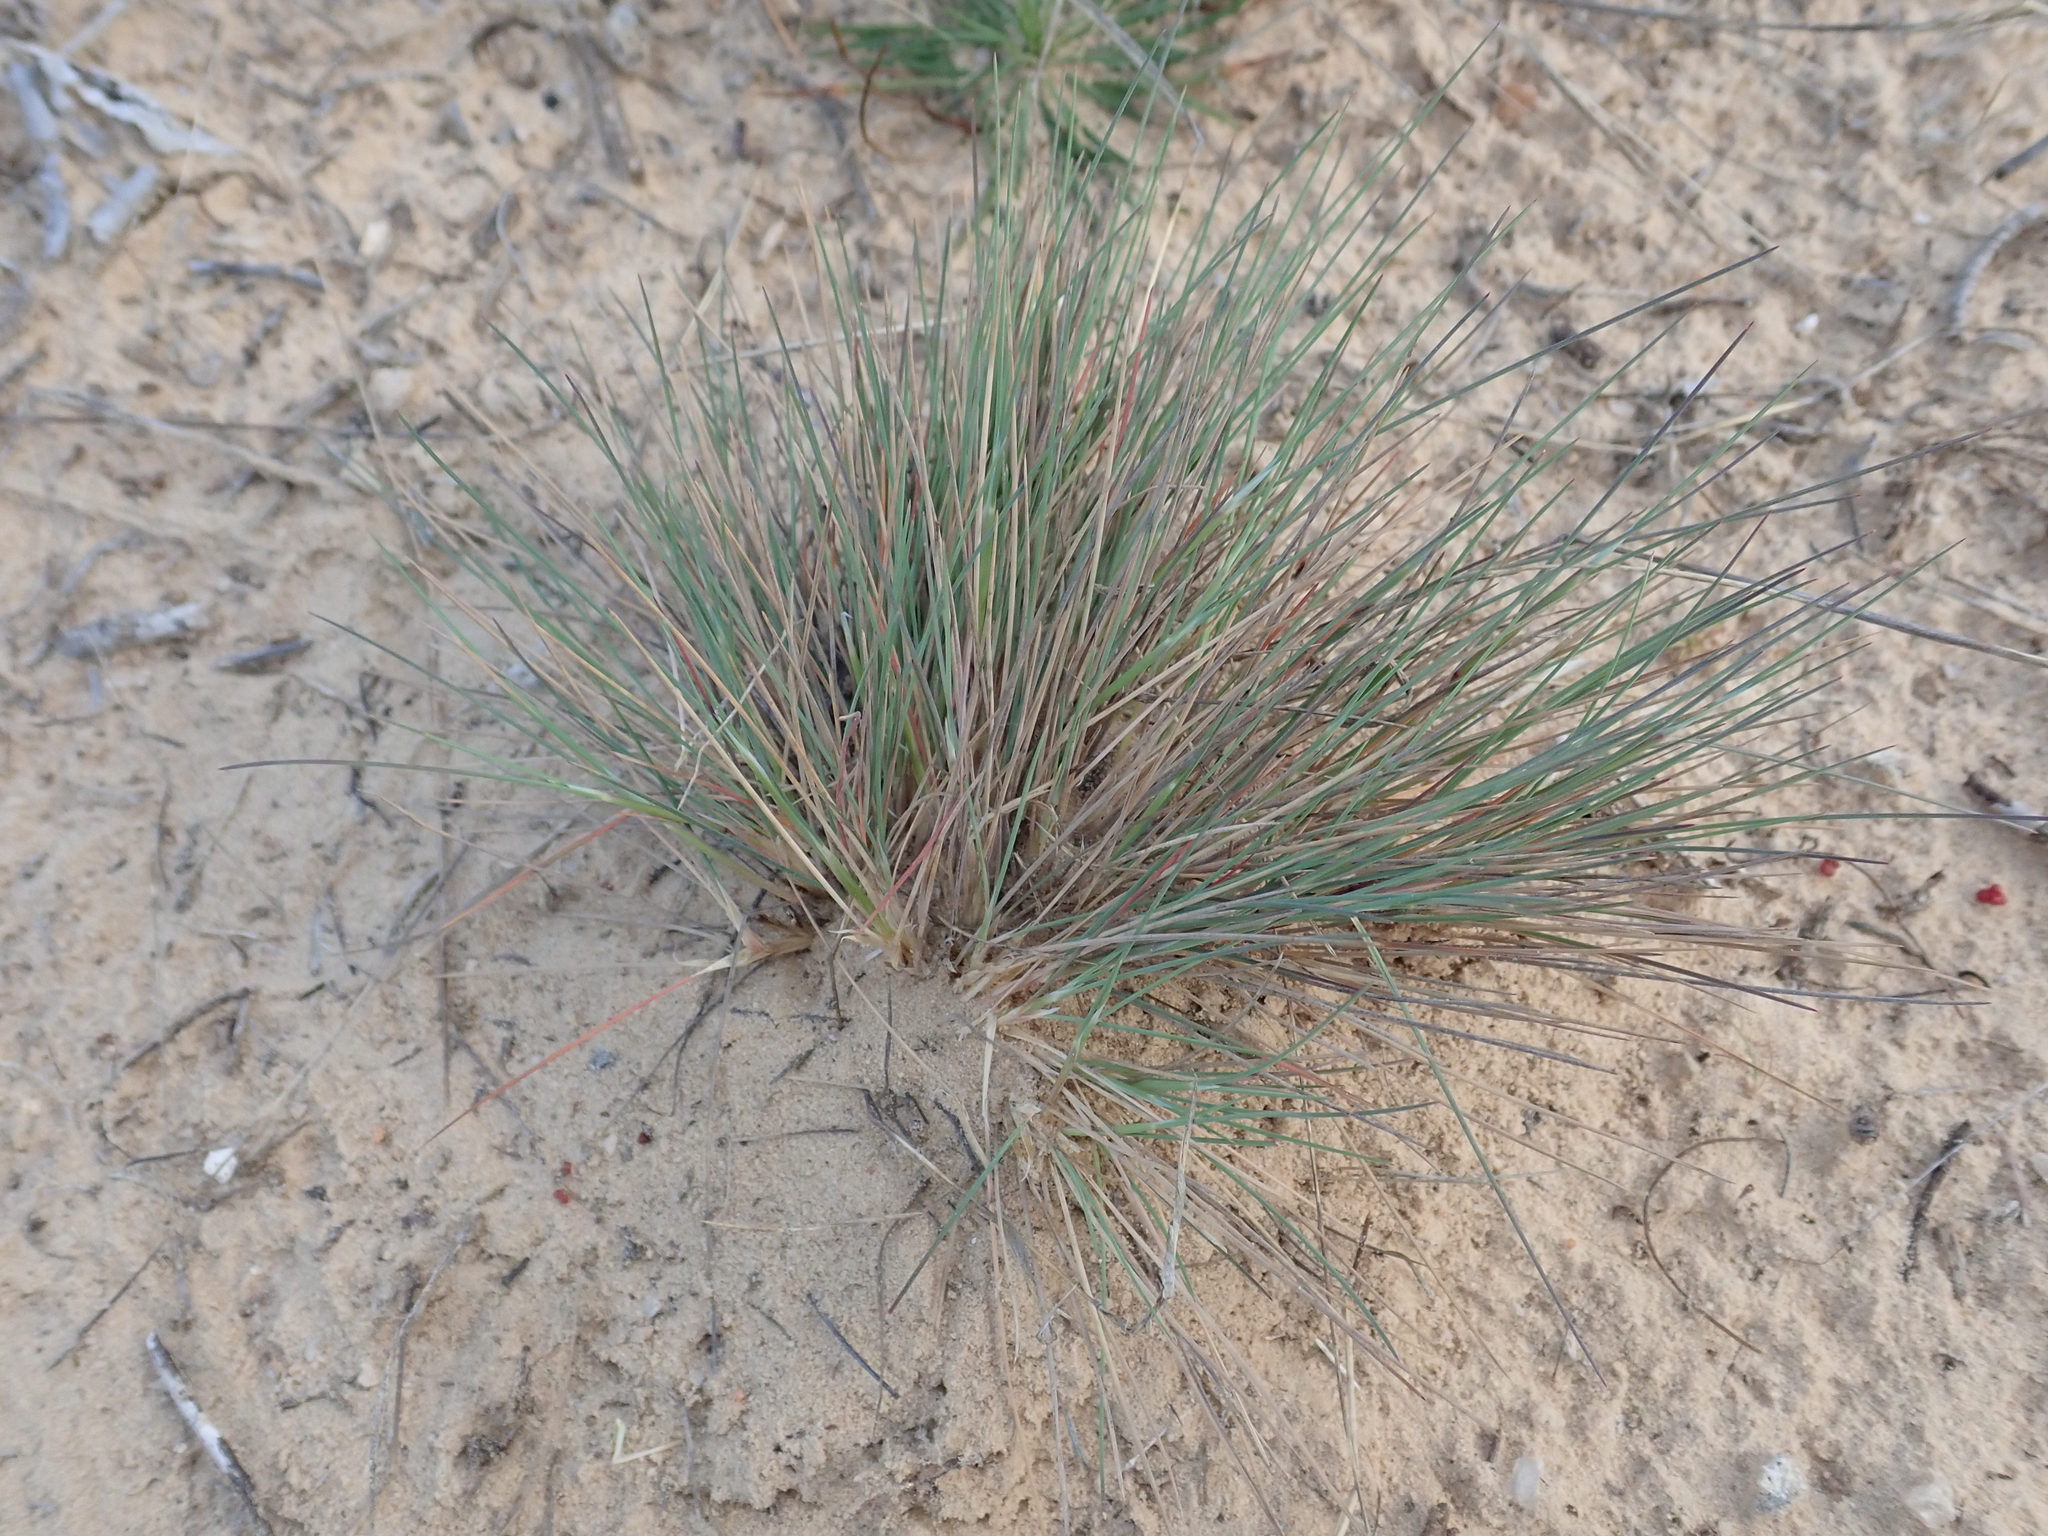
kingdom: Plantae
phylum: Tracheophyta
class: Liliopsida
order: Poales
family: Poaceae
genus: Corynephorus
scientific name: Corynephorus canescens
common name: Grey hair-grass
